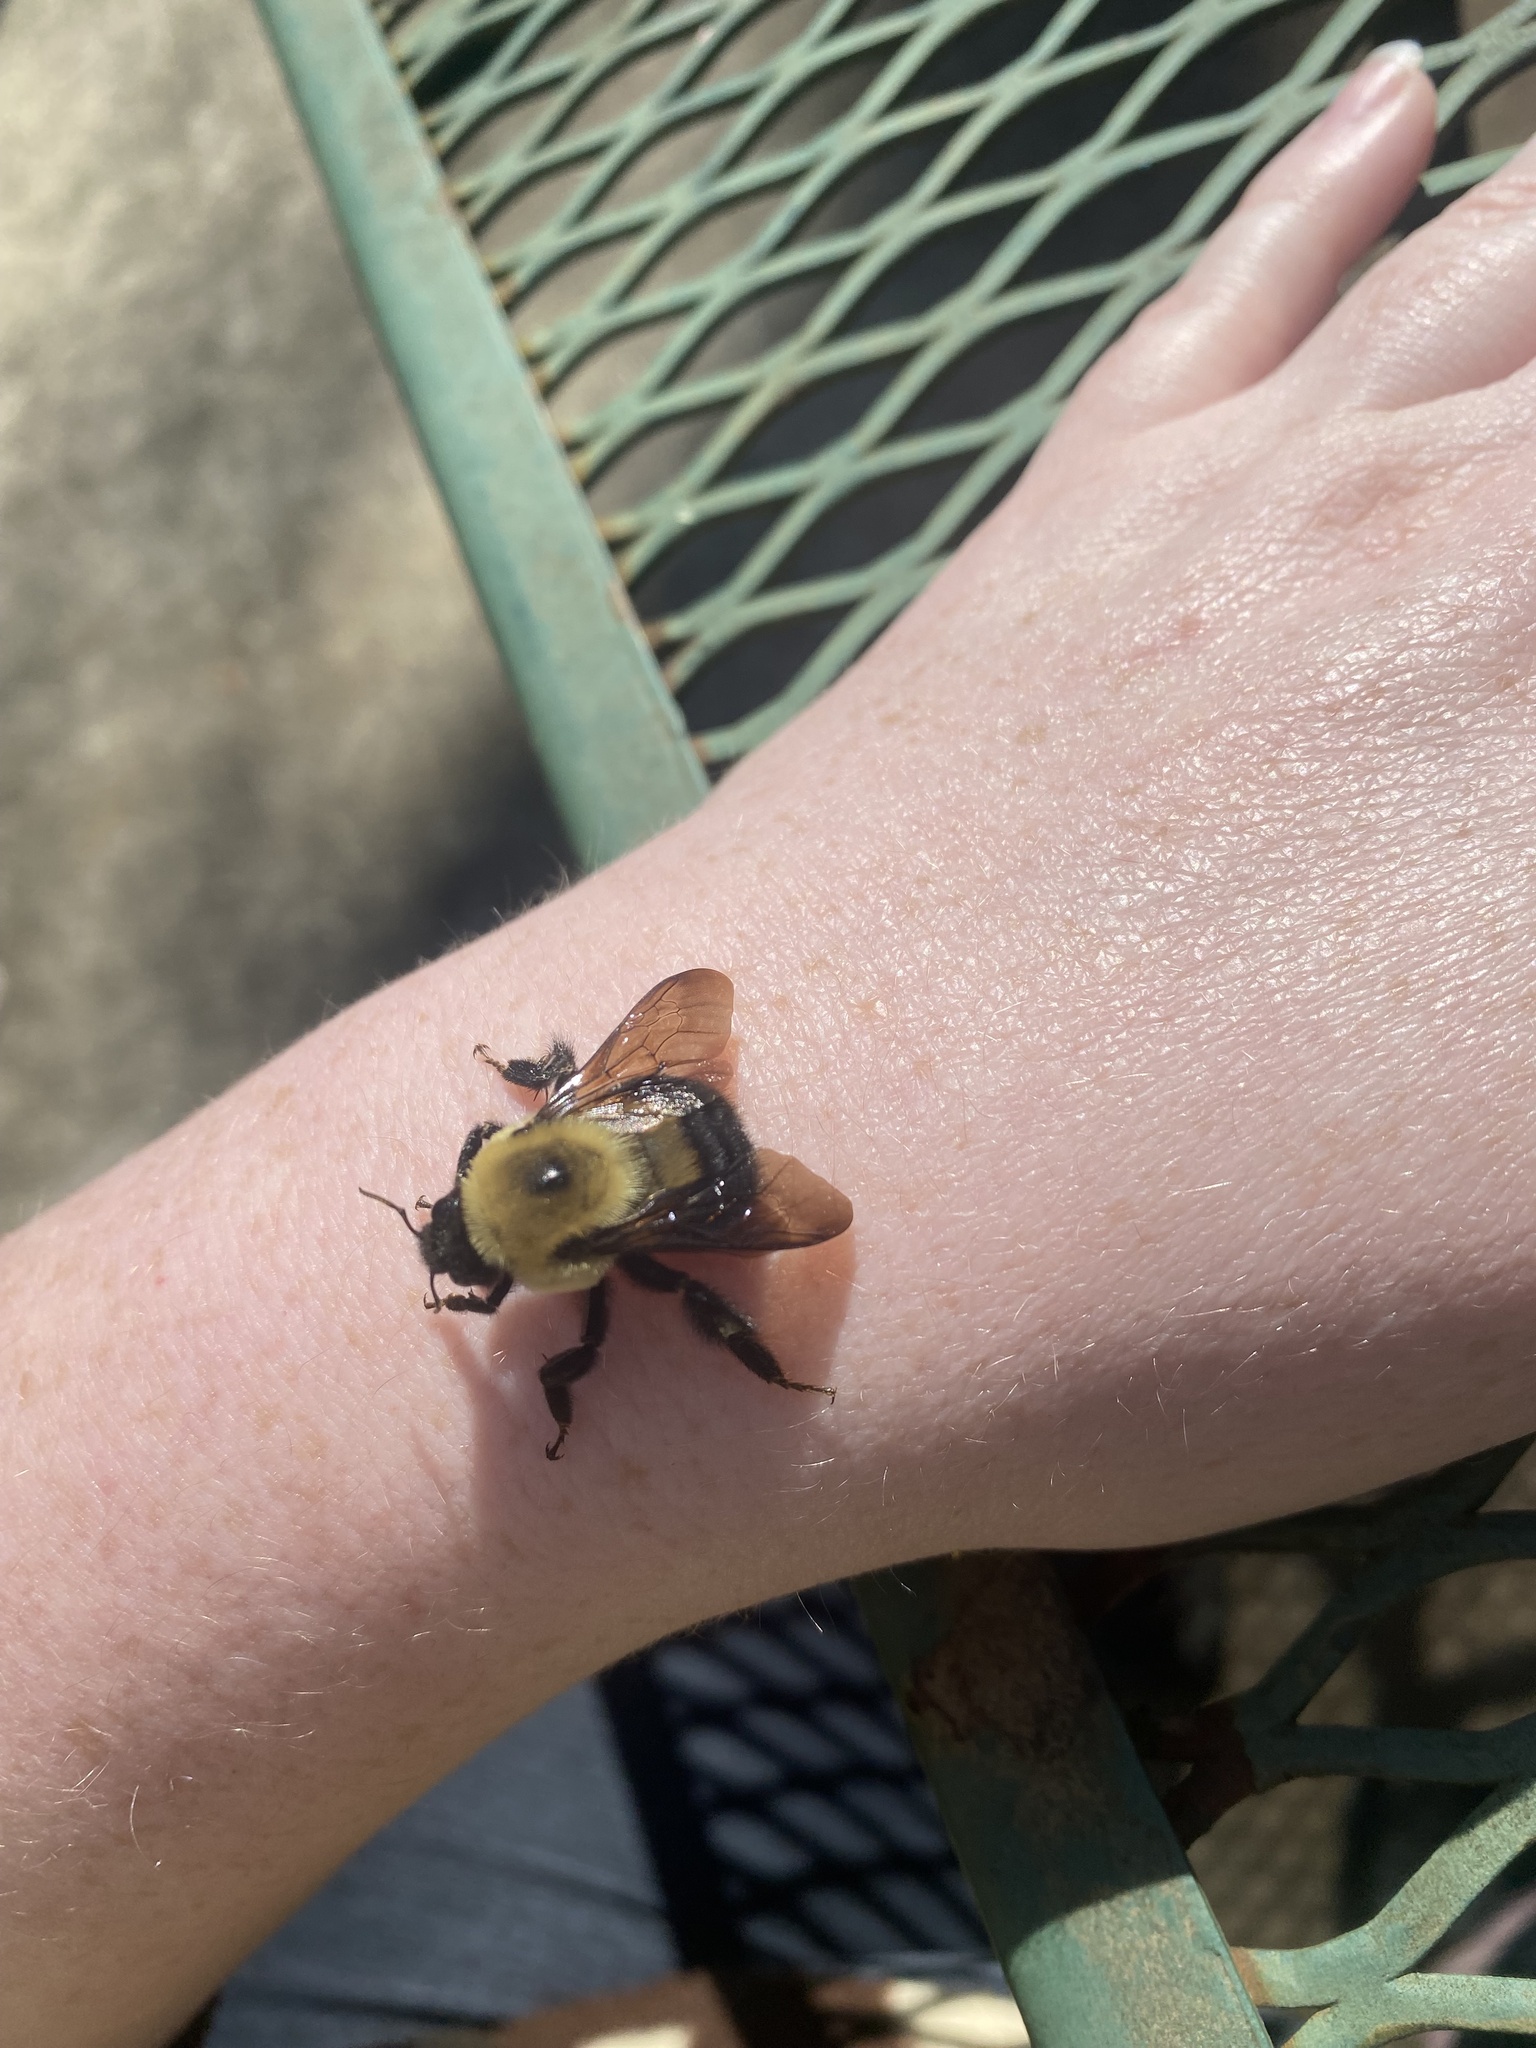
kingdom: Animalia
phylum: Arthropoda
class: Insecta
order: Hymenoptera
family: Apidae
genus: Bombus
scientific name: Bombus griseocollis
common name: Brown-belted bumble bee
